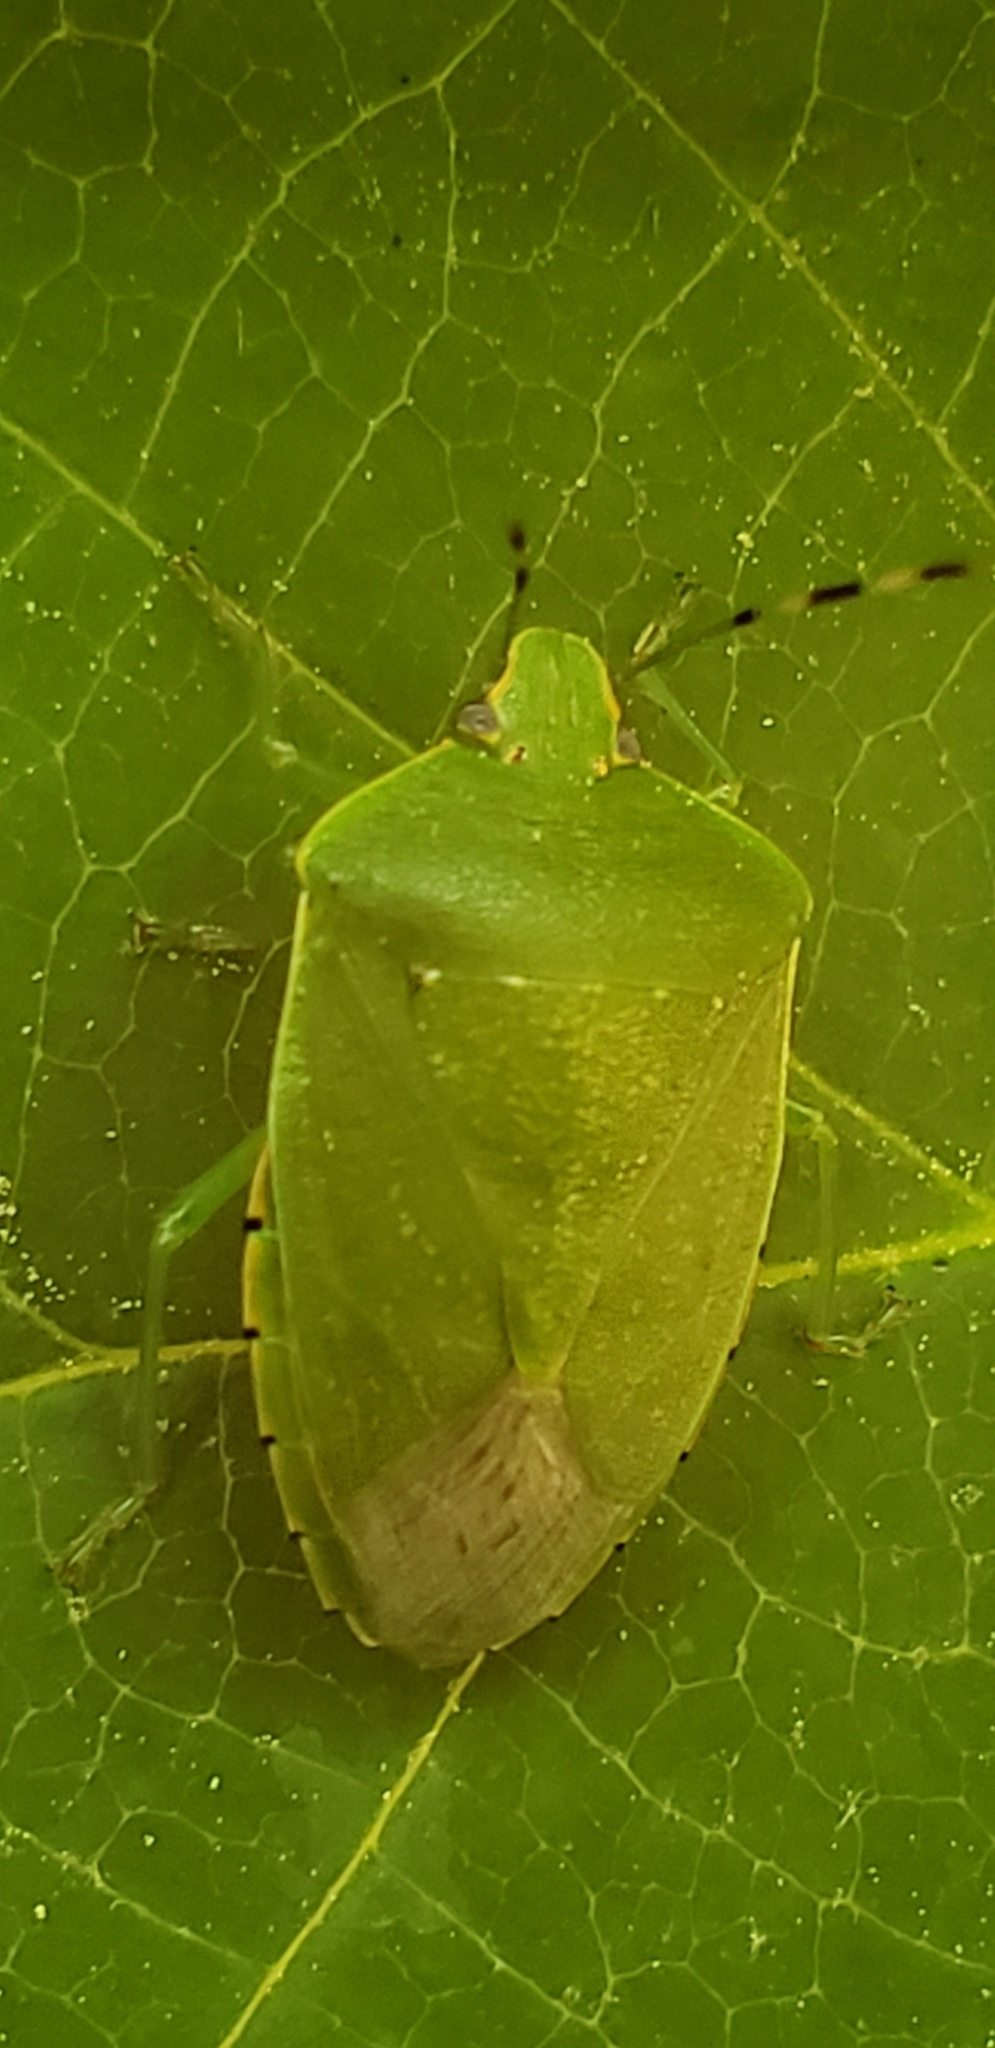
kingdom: Animalia
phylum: Arthropoda
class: Insecta
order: Hemiptera
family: Pentatomidae
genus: Chinavia
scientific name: Chinavia hilaris
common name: Green stink bug
